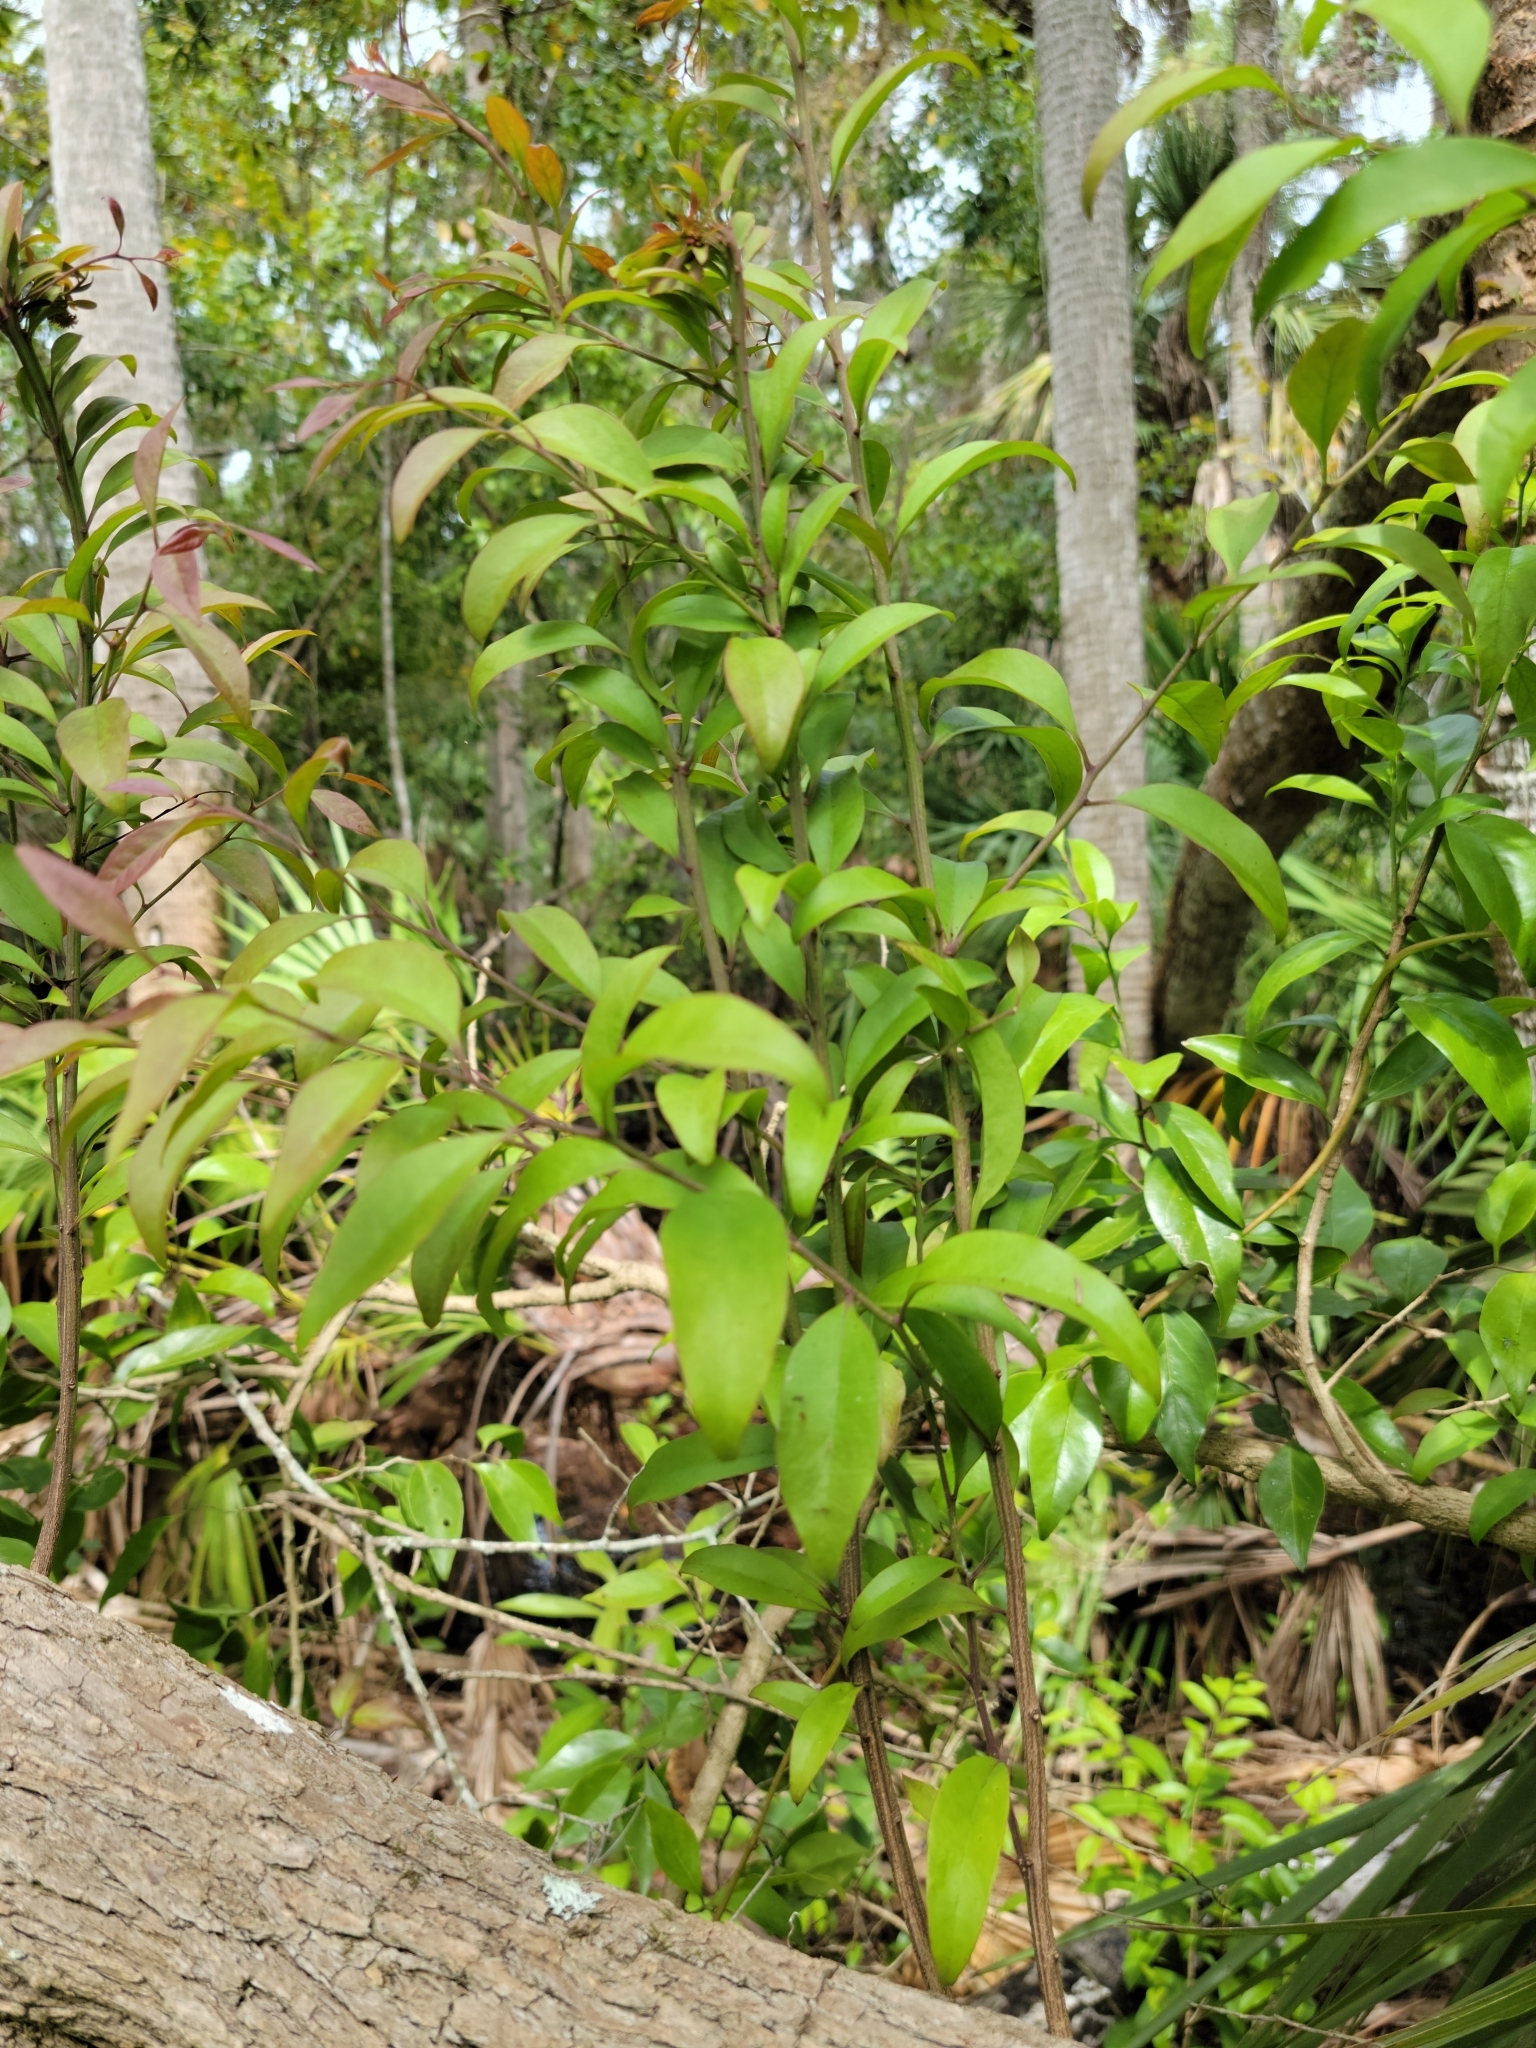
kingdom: Plantae
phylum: Tracheophyta
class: Magnoliopsida
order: Santalales
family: Schoepfiaceae
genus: Schoepfia
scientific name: Schoepfia schreberi
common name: Gulf graytwig
